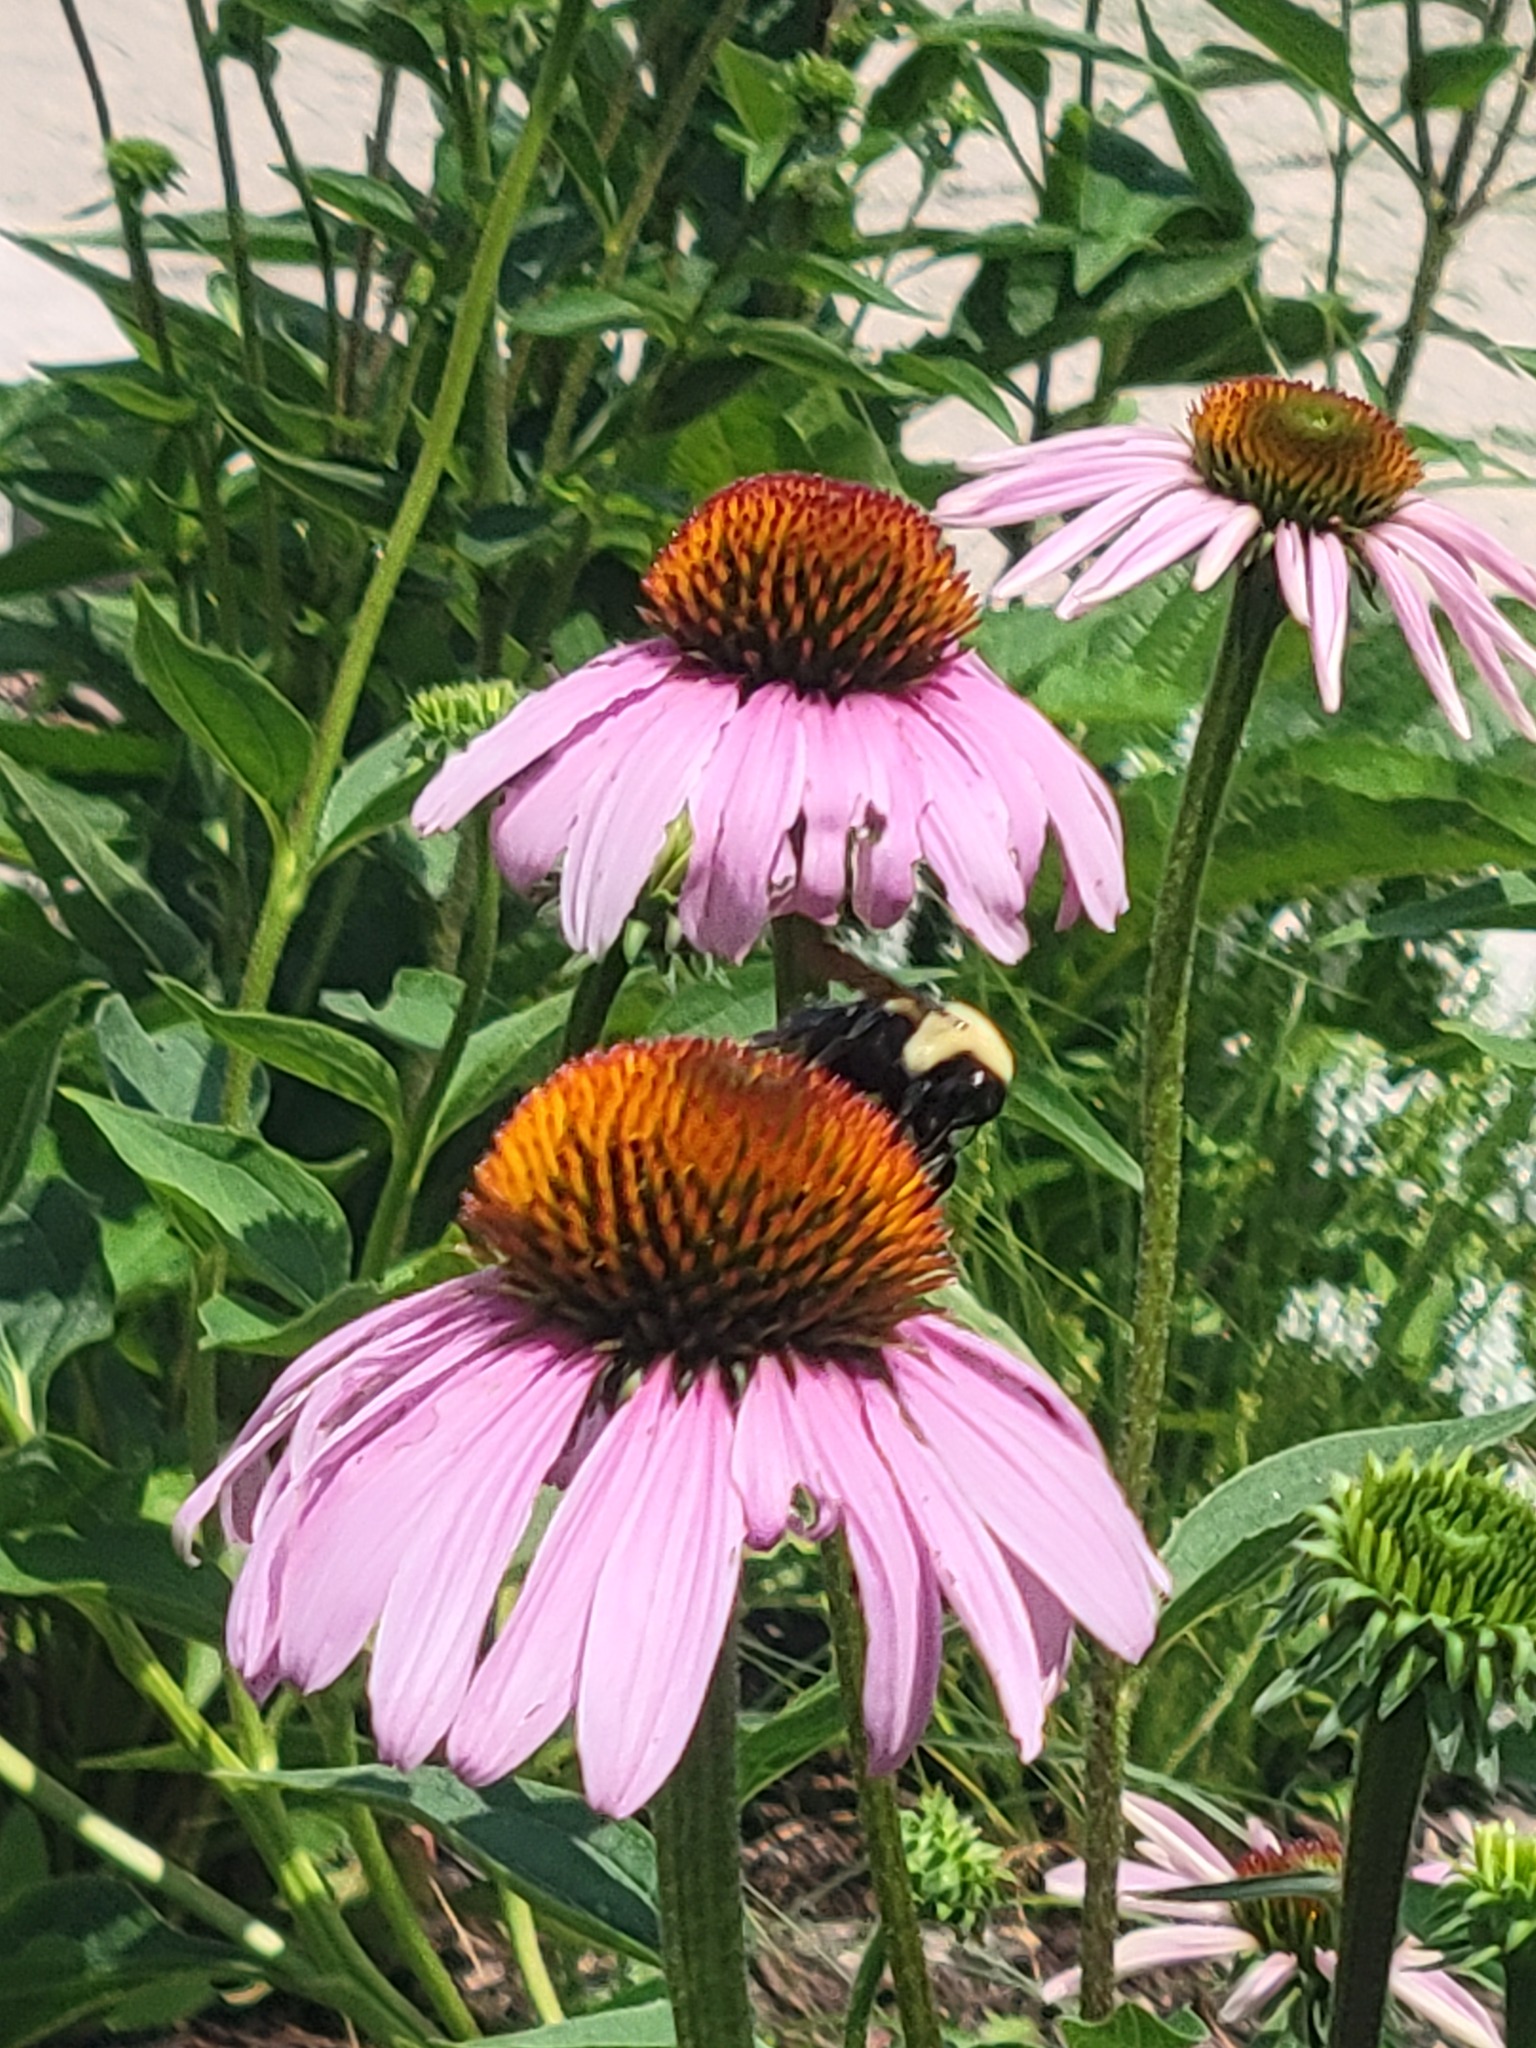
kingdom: Animalia
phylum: Arthropoda
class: Insecta
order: Hymenoptera
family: Apidae
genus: Bombus
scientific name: Bombus griseocollis
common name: Brown-belted bumble bee
